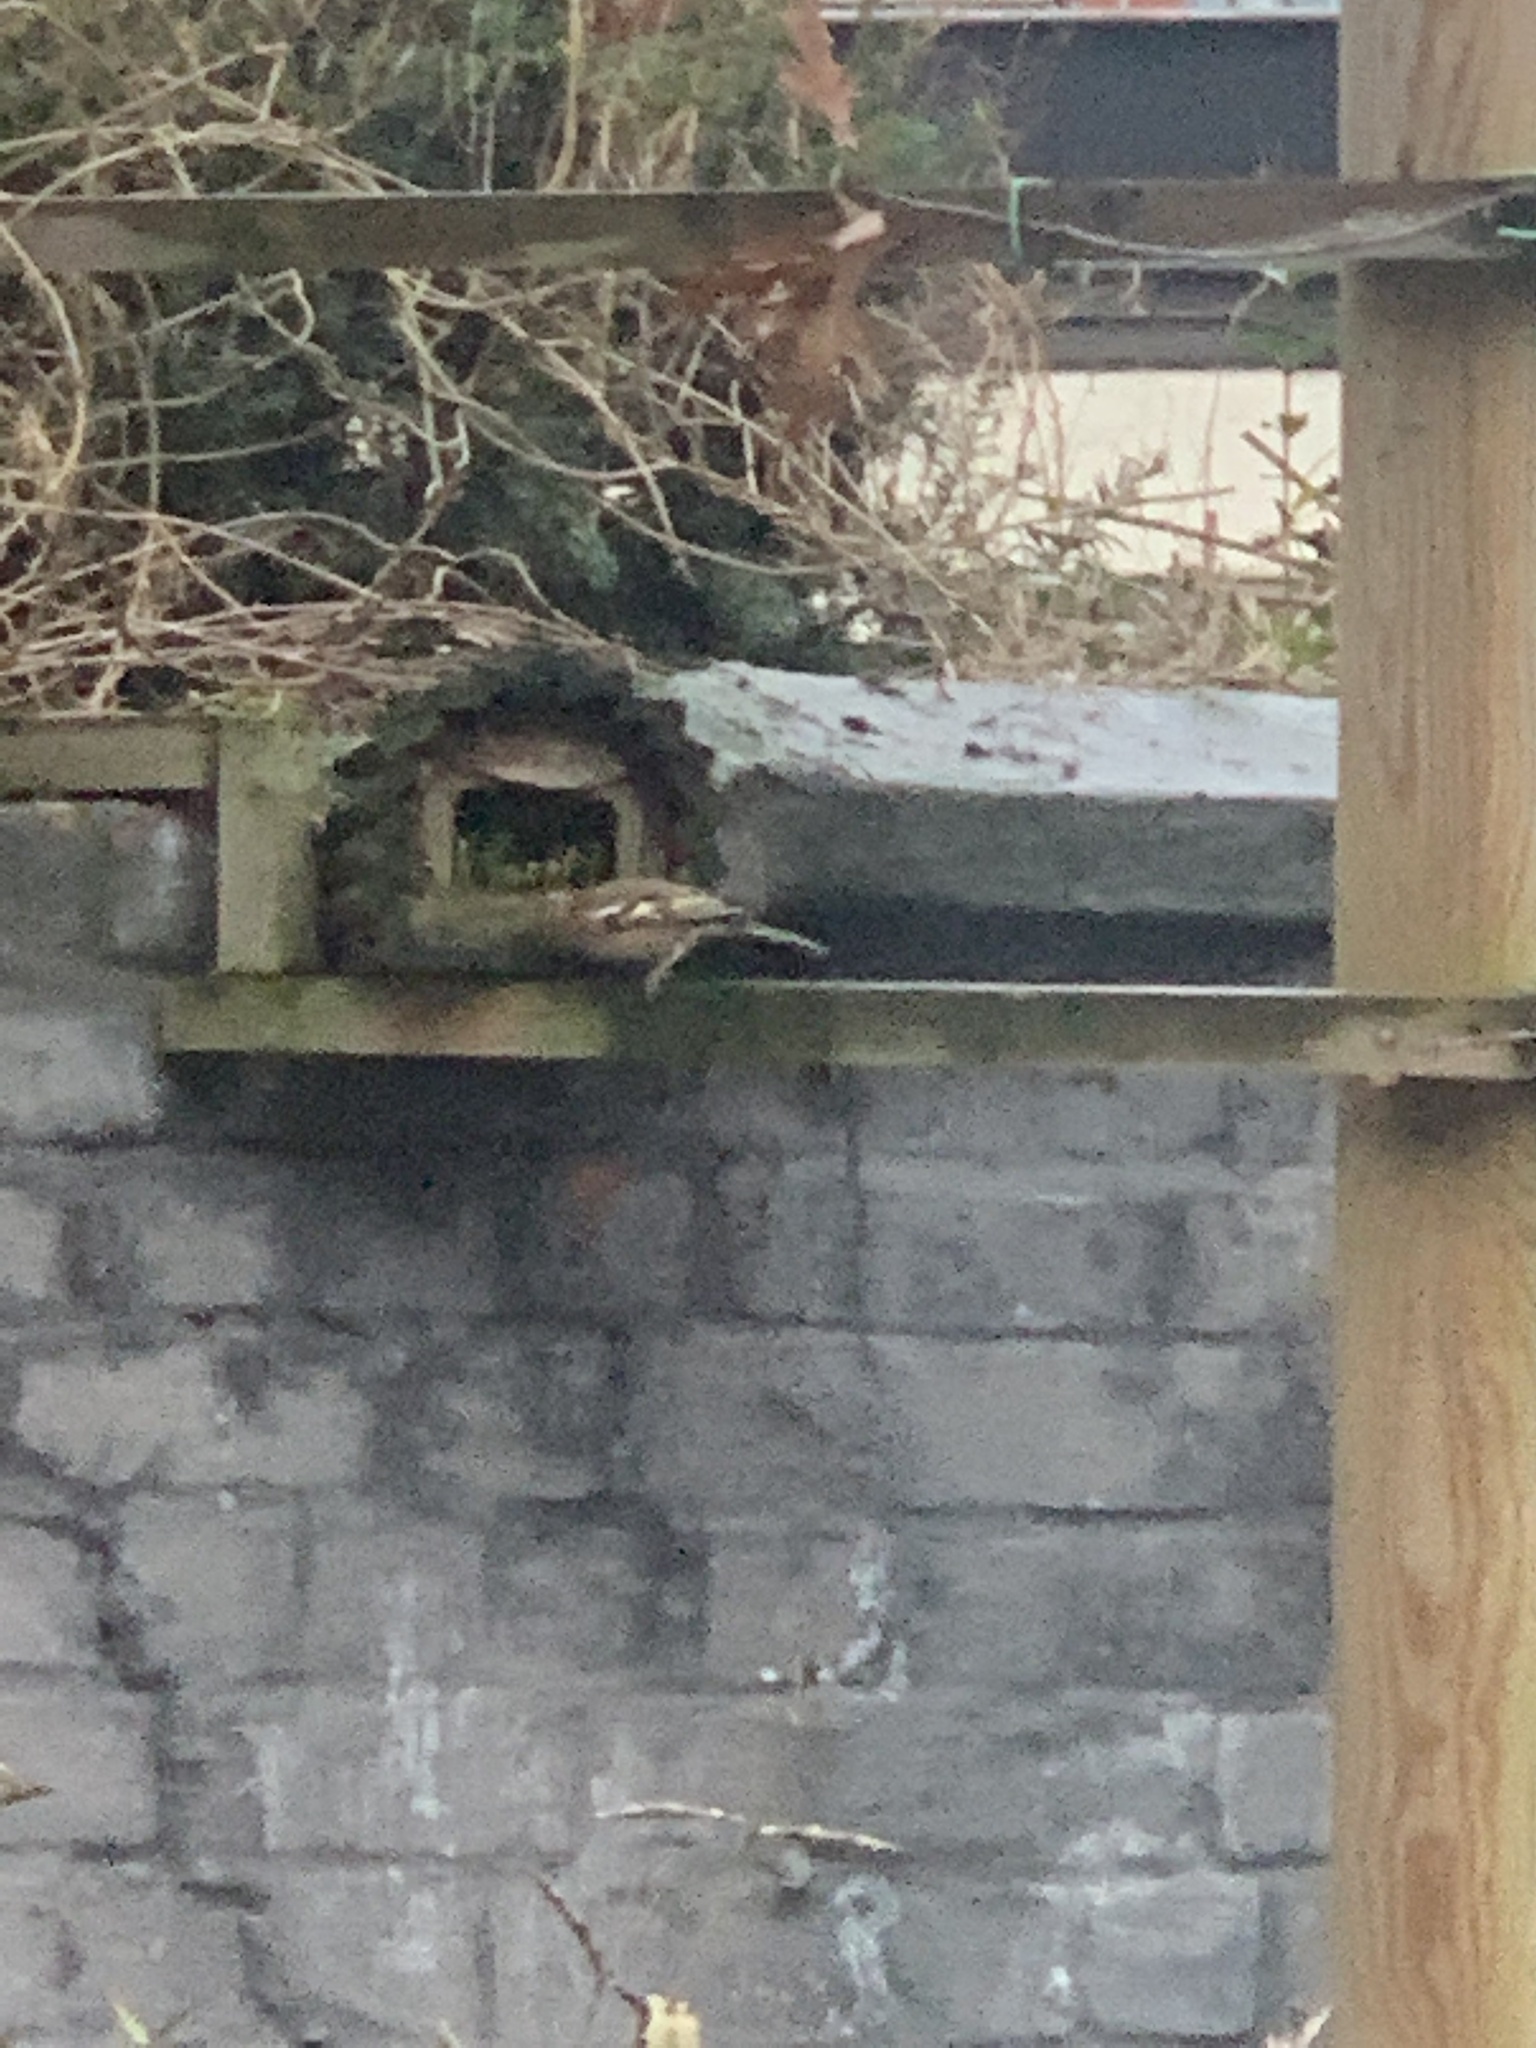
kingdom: Animalia
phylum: Chordata
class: Aves
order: Passeriformes
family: Fringillidae
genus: Fringilla
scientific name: Fringilla coelebs
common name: Common chaffinch
